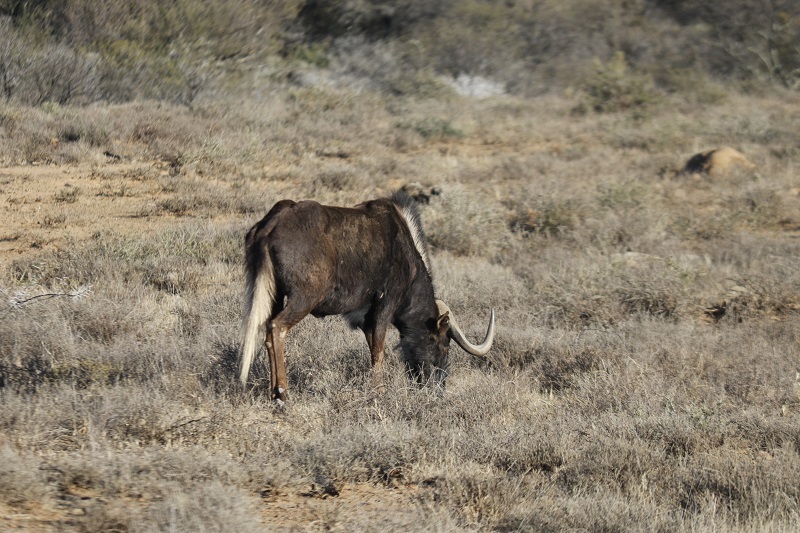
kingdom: Animalia
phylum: Chordata
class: Mammalia
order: Artiodactyla
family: Bovidae
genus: Connochaetes
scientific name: Connochaetes gnou
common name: Black wildebeest
